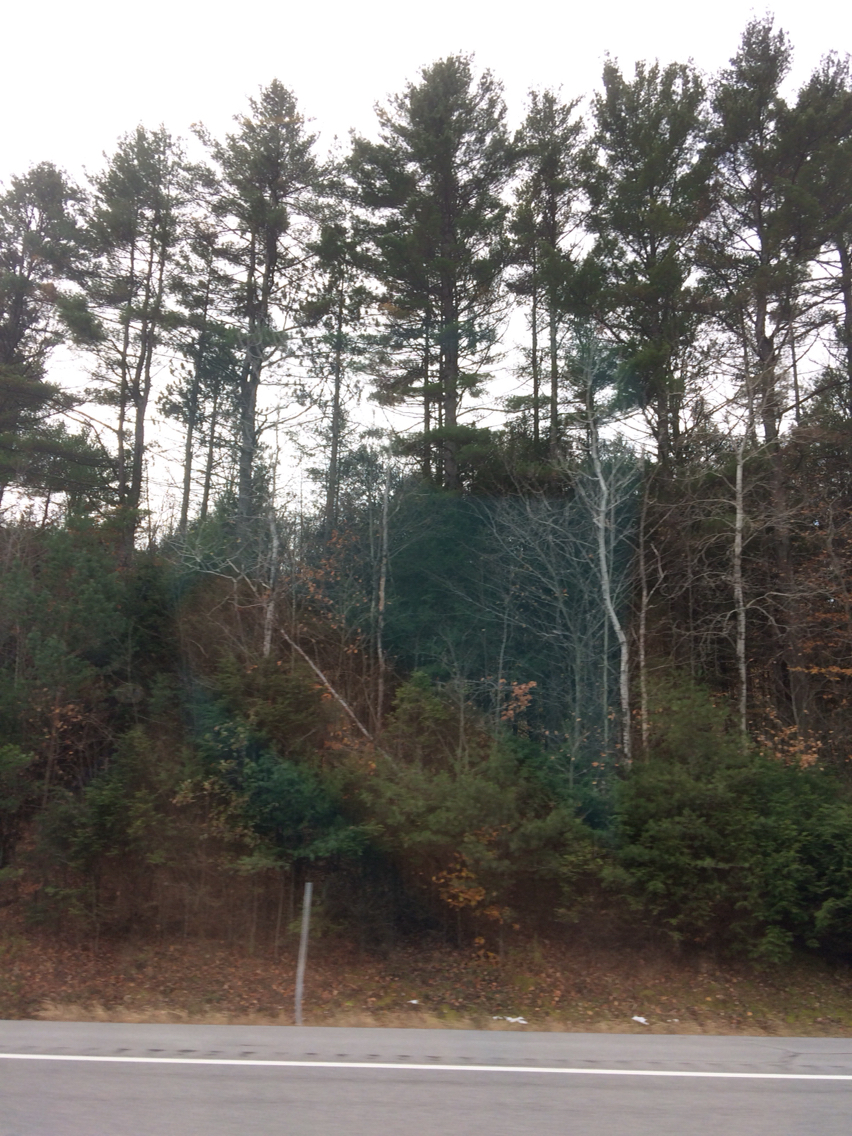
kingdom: Plantae
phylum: Tracheophyta
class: Pinopsida
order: Pinales
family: Pinaceae
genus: Pinus
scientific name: Pinus strobus
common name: Weymouth pine
